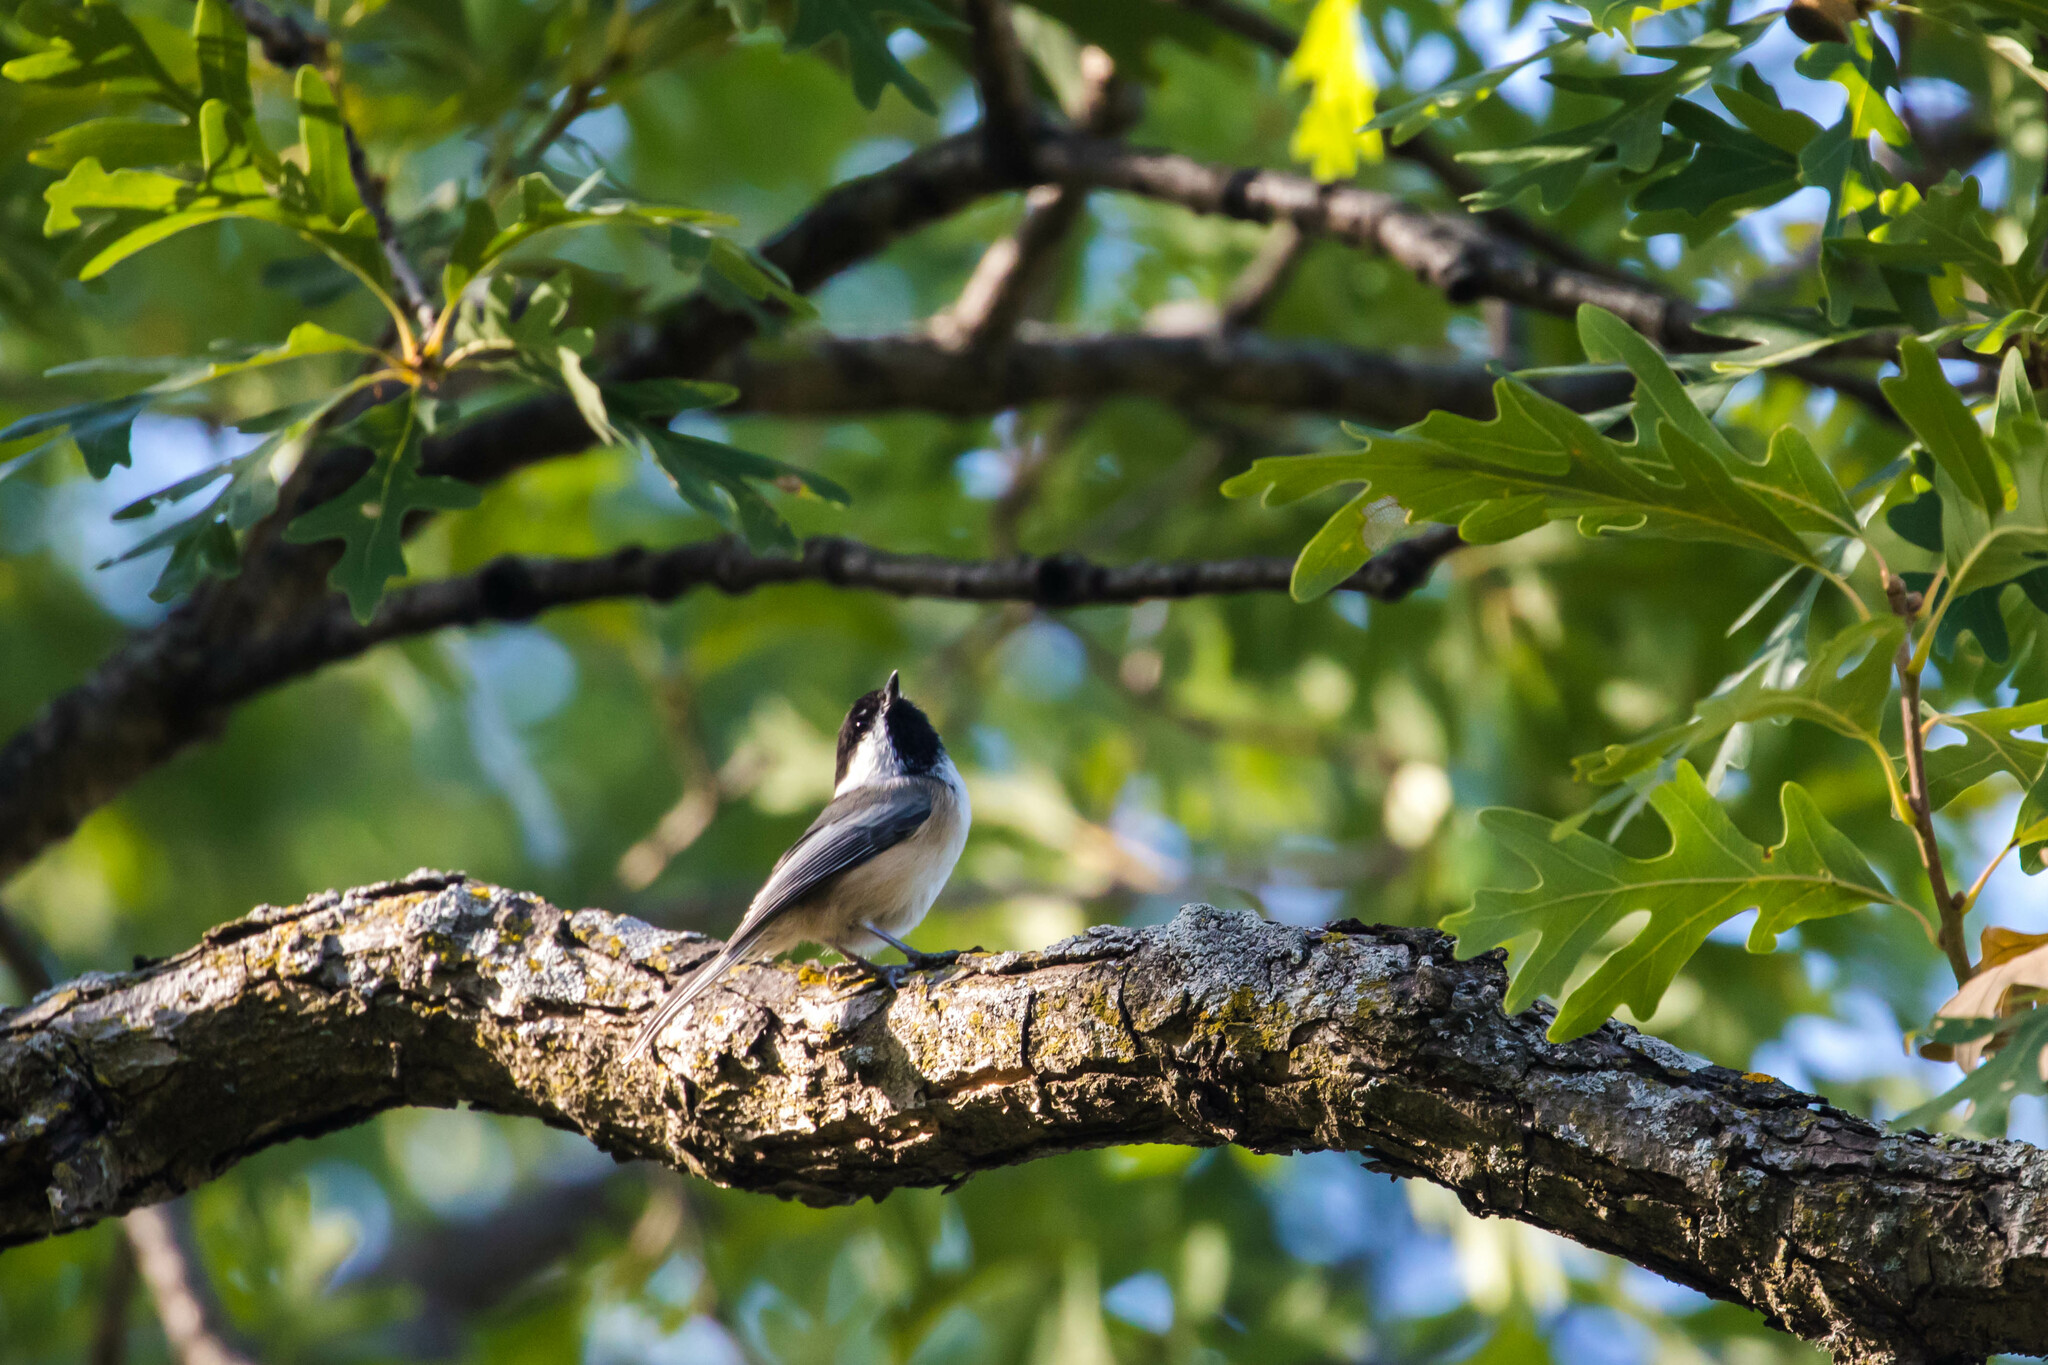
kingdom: Animalia
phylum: Chordata
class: Aves
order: Passeriformes
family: Paridae
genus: Poecile
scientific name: Poecile atricapillus
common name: Black-capped chickadee
